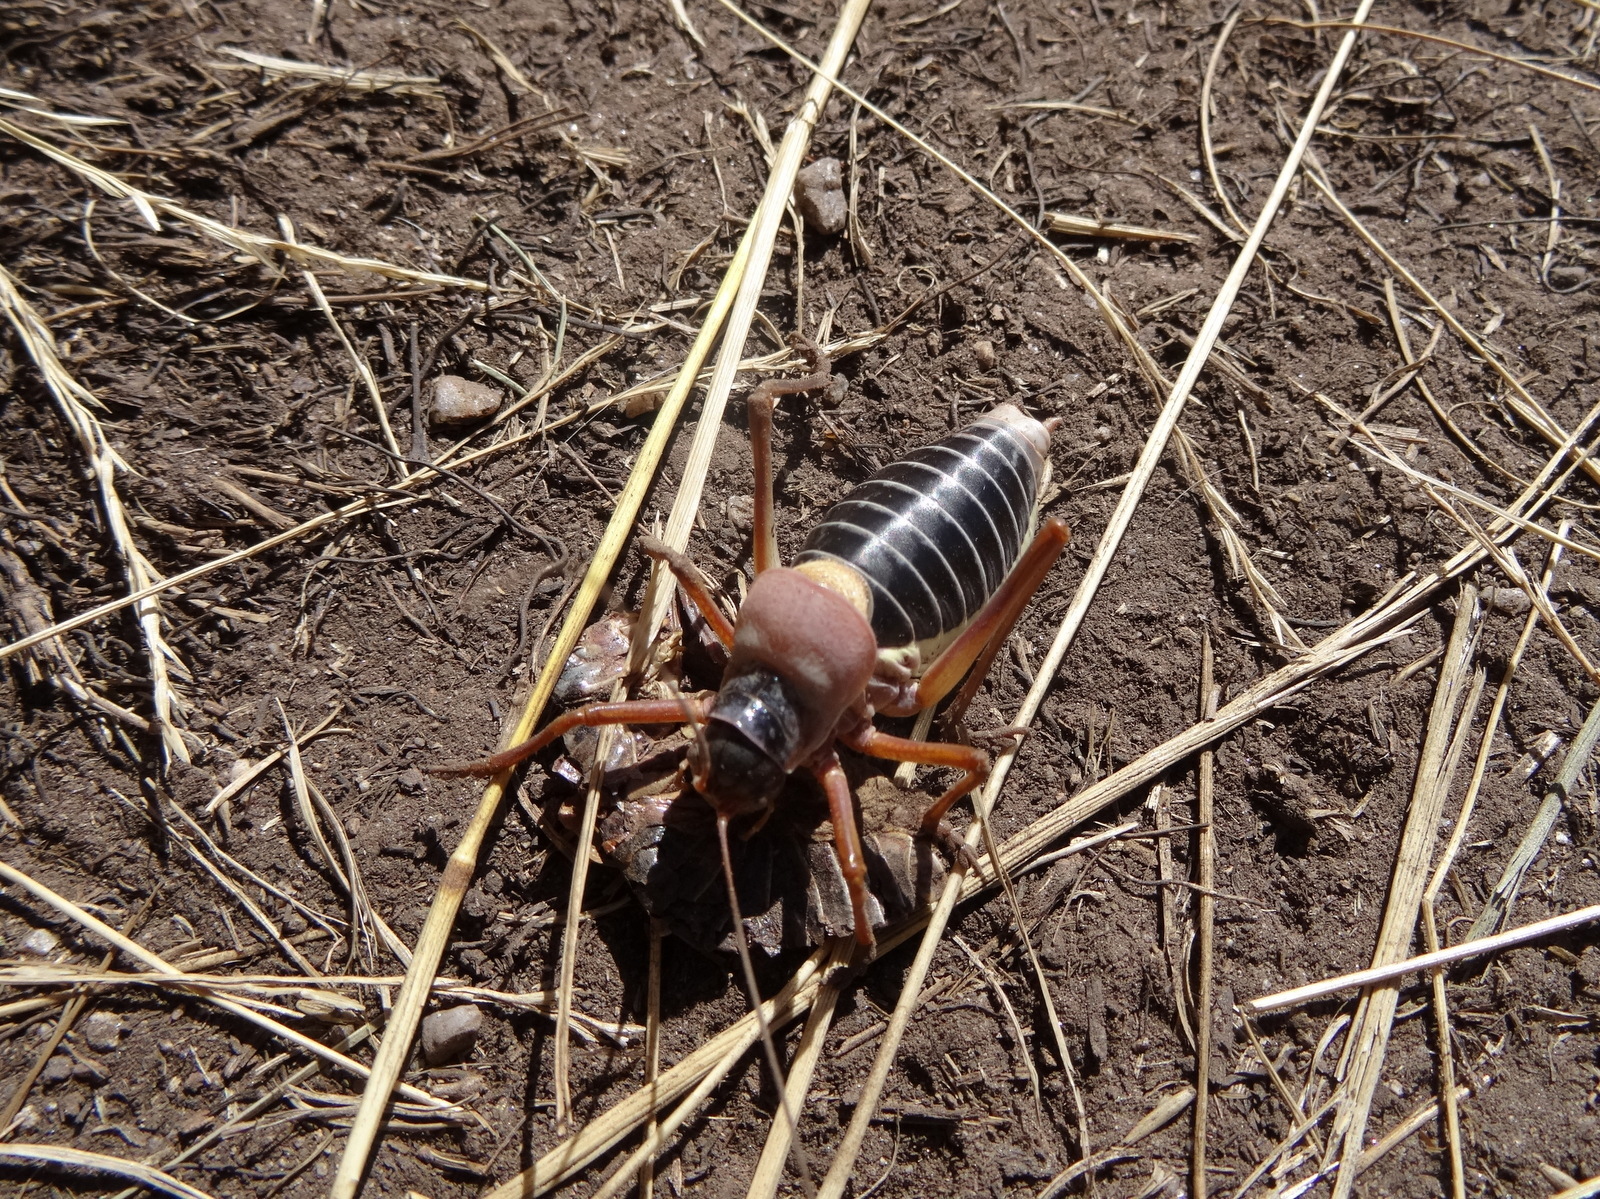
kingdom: Animalia
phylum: Arthropoda
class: Insecta
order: Orthoptera
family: Tettigoniidae
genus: Ephippiger
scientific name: Ephippiger diurnus
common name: Western saddle bush-cricket
